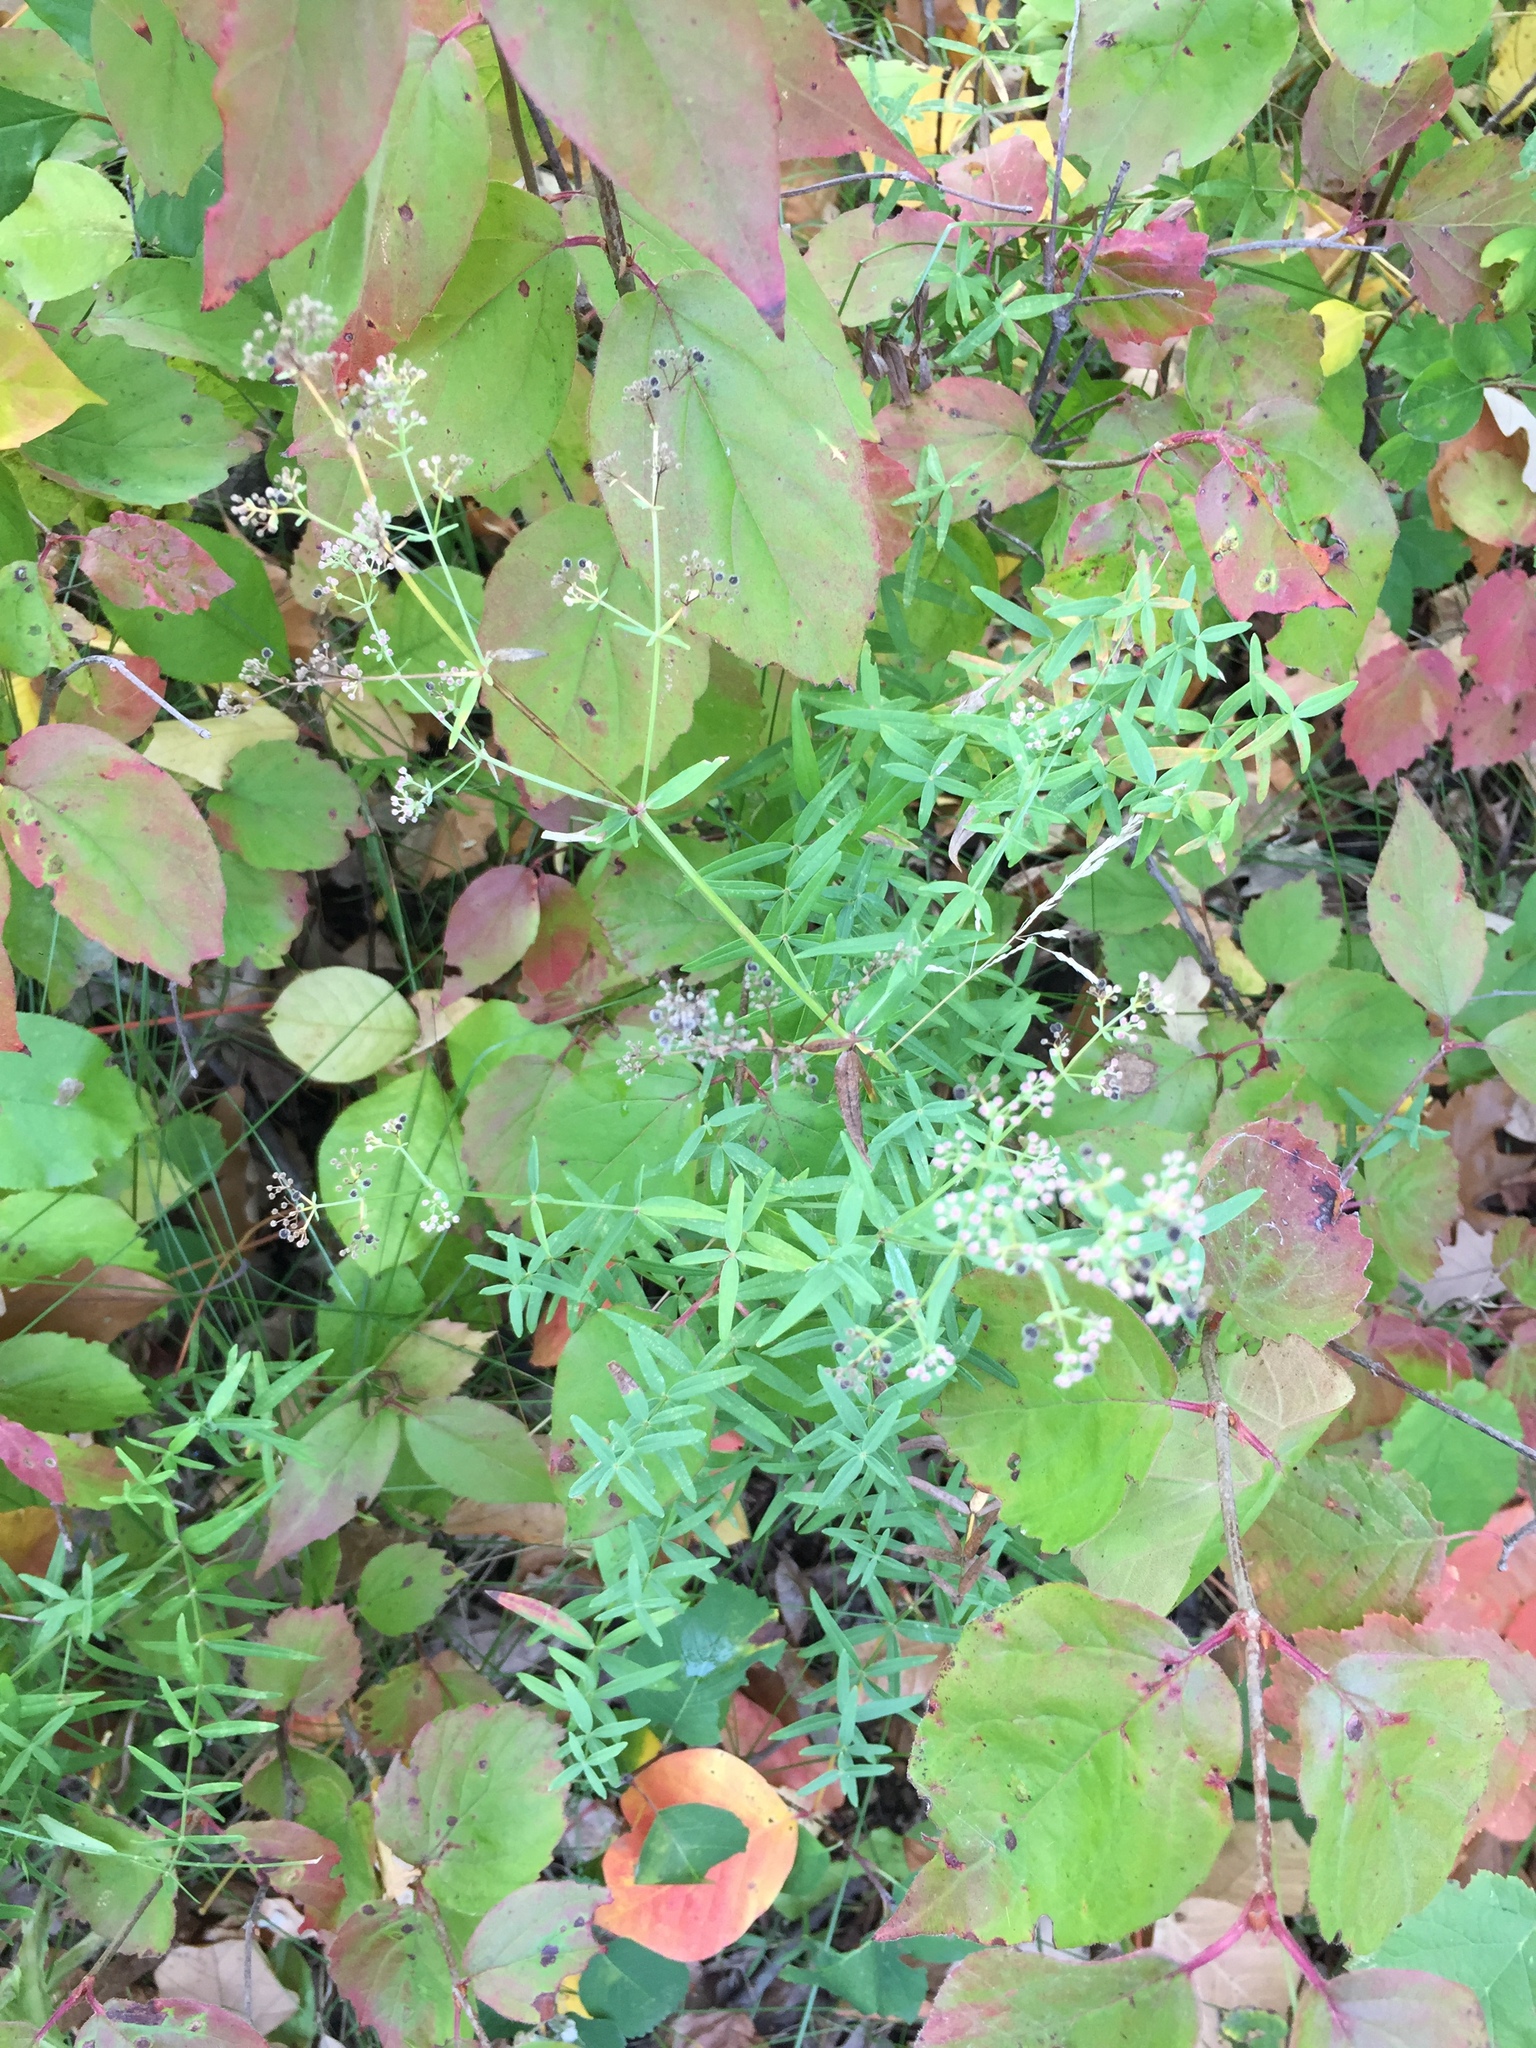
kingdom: Plantae
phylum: Tracheophyta
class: Magnoliopsida
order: Gentianales
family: Rubiaceae
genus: Galium
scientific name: Galium boreale
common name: Northern bedstraw
